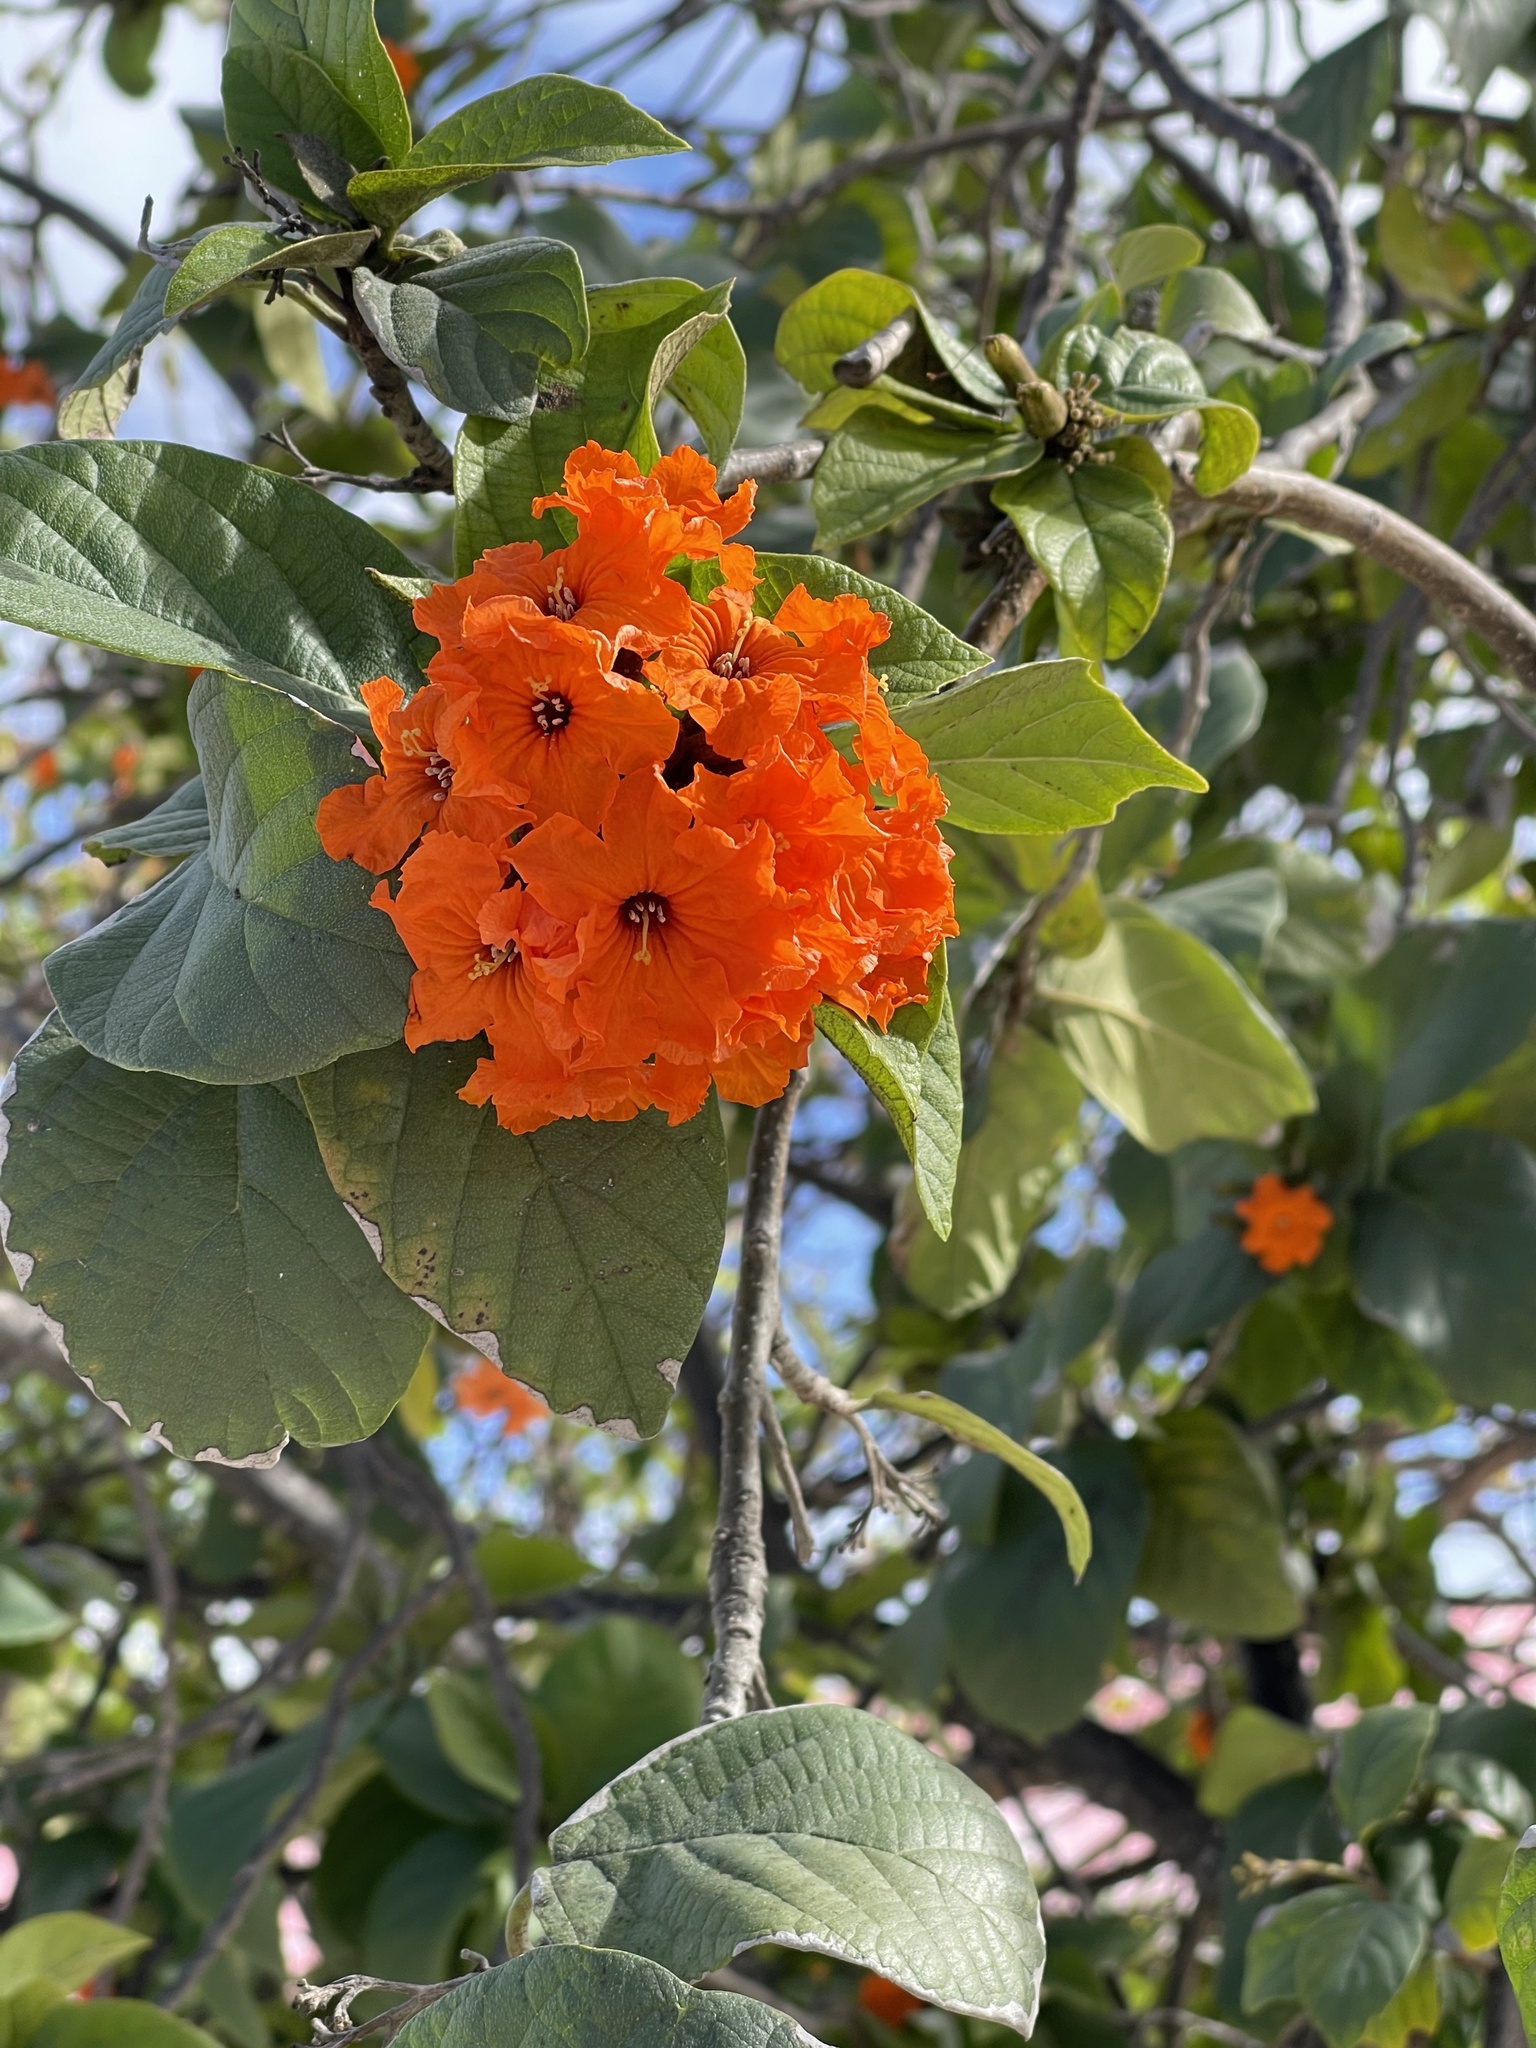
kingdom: Plantae
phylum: Tracheophyta
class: Magnoliopsida
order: Boraginales
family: Cordiaceae
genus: Cordia
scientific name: Cordia sebestena
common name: Largeleaf geigertree
